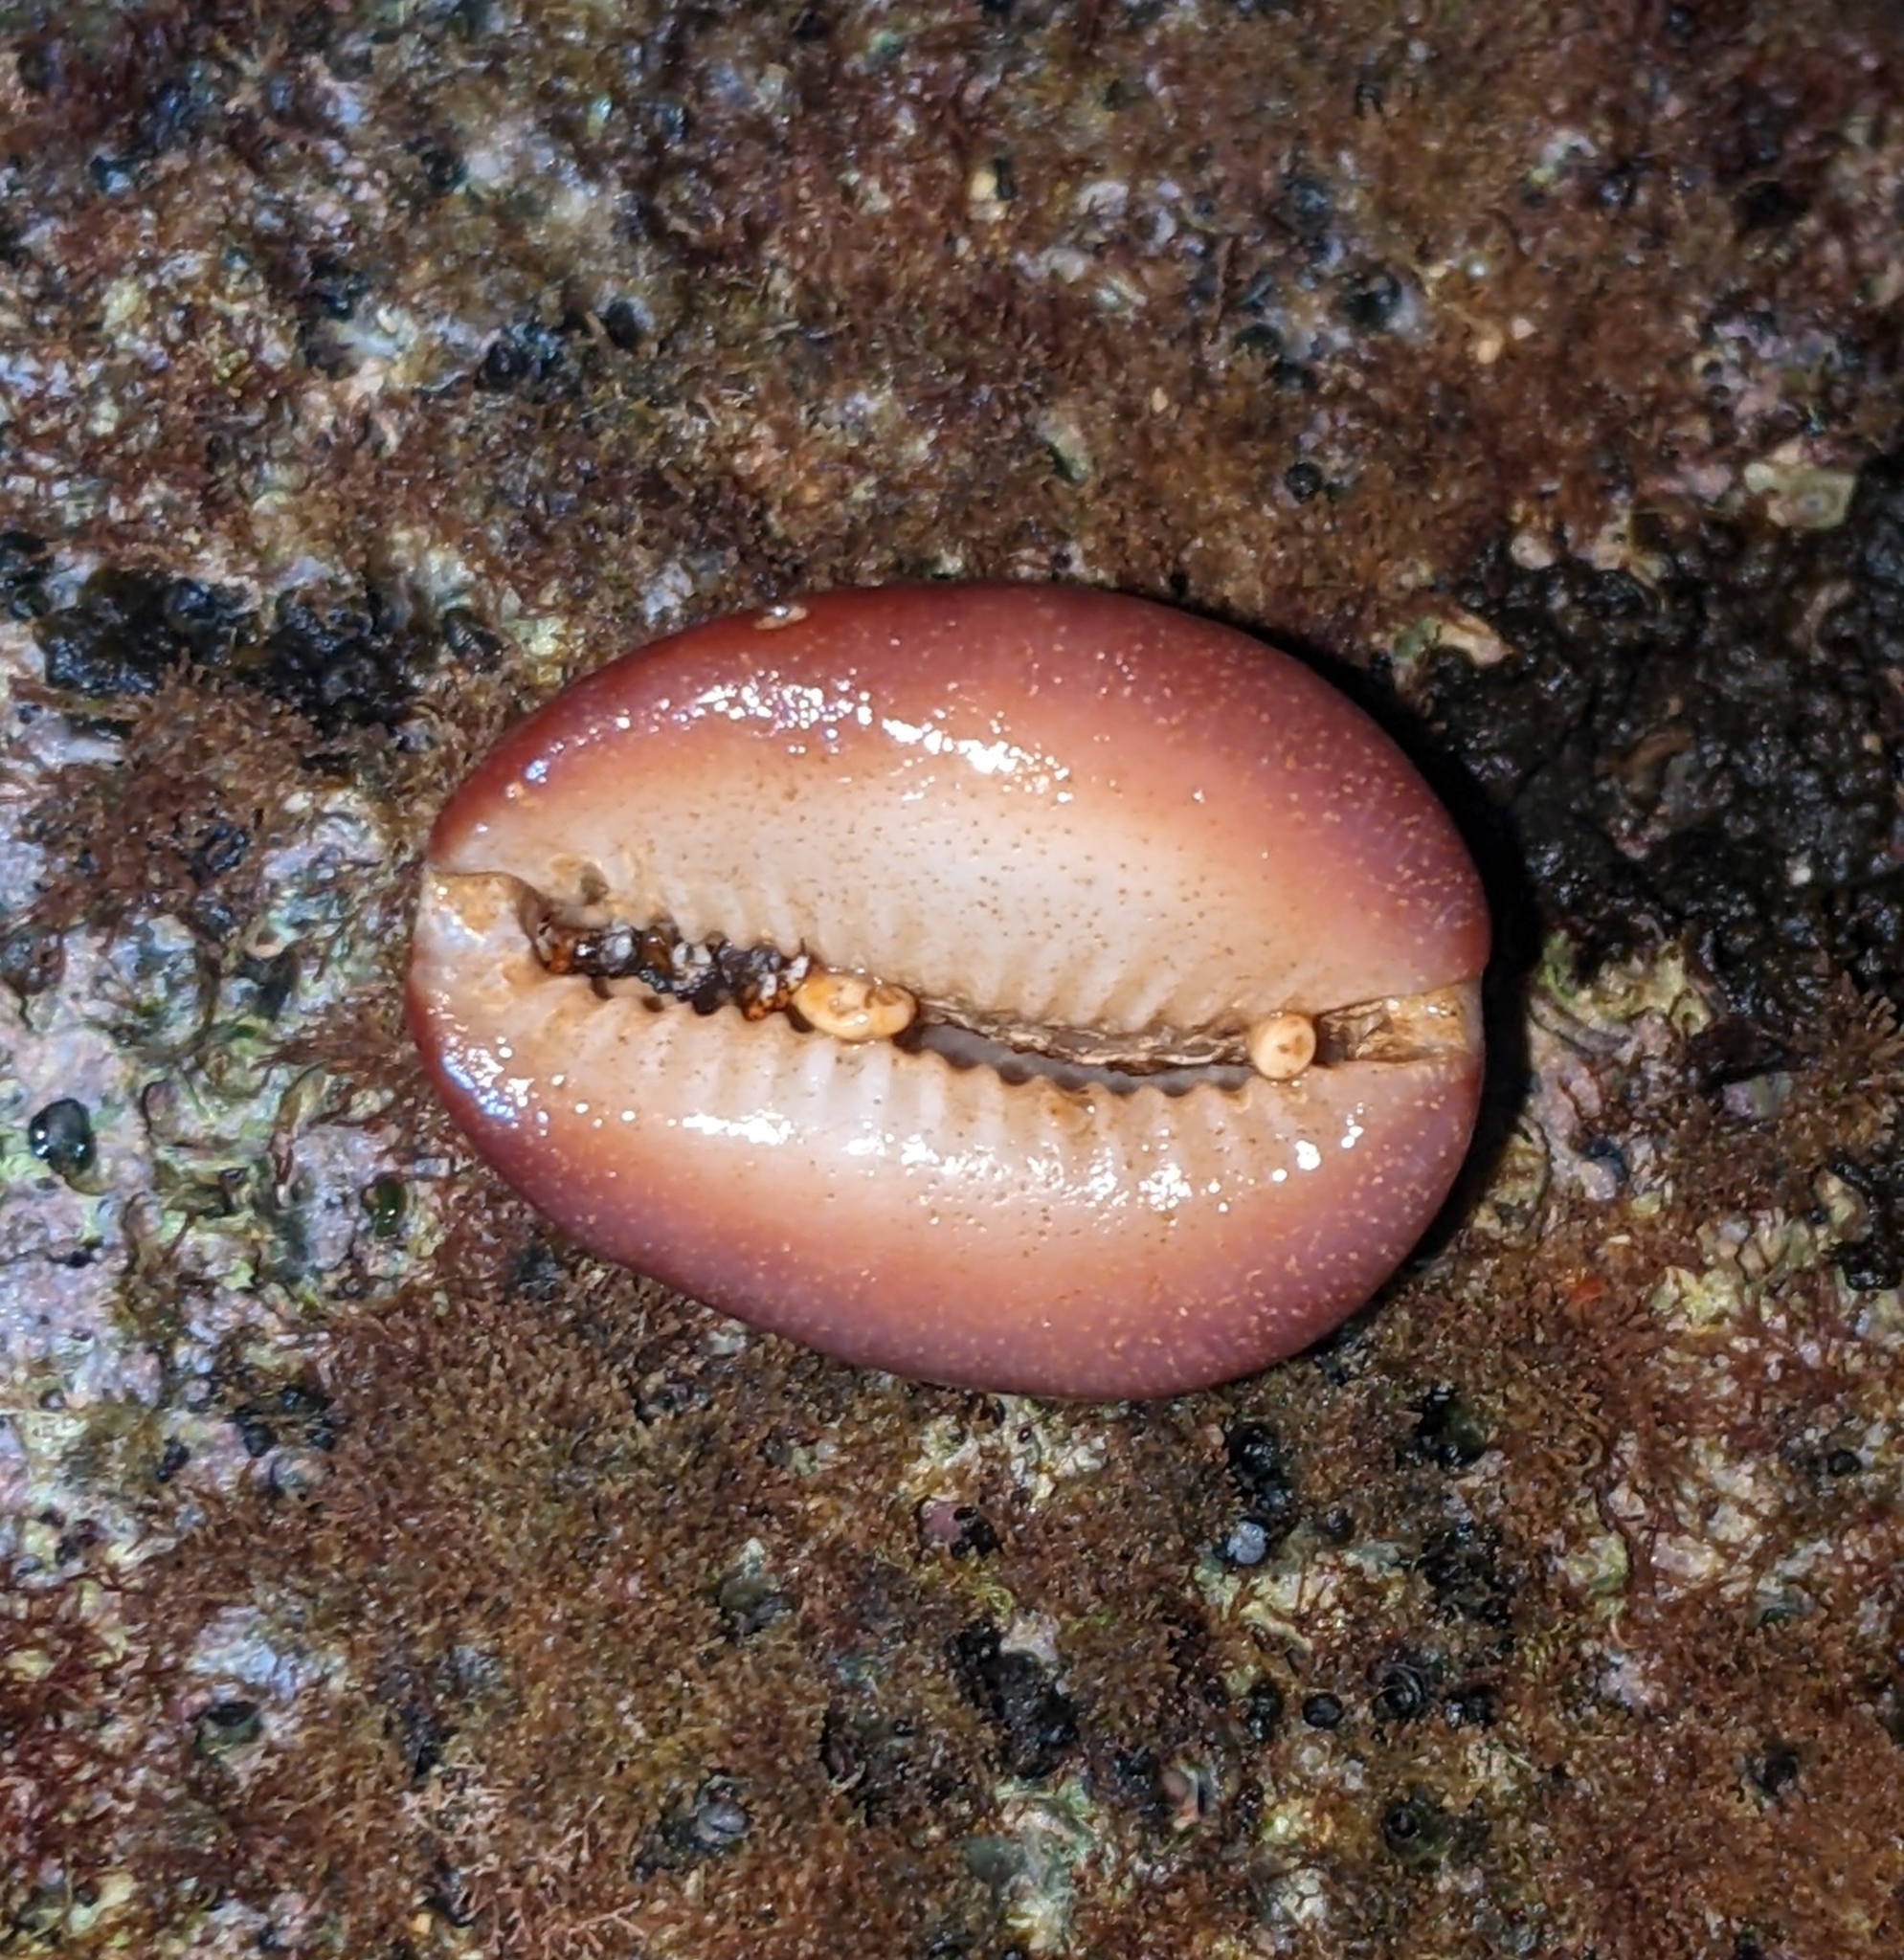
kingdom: Animalia
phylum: Mollusca
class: Gastropoda
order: Littorinimorpha
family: Cypraeidae
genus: Monetaria
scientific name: Monetaria caputophidii
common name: Snake's head cowry
